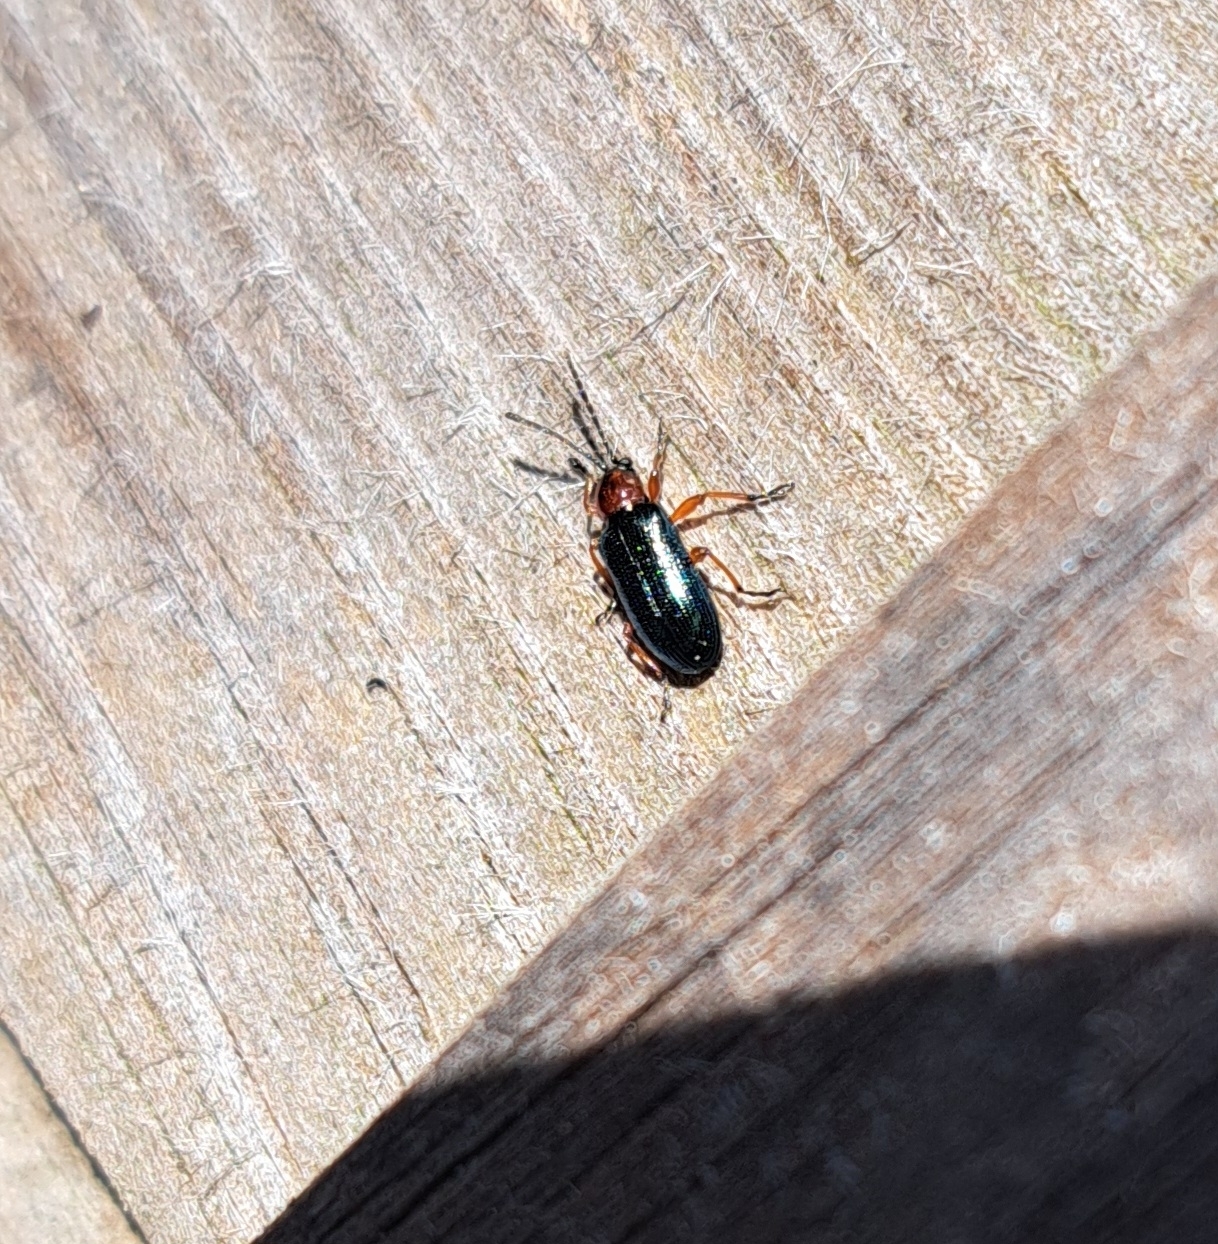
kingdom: Animalia
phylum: Arthropoda
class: Insecta
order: Coleoptera
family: Chrysomelidae
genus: Oulema
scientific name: Oulema
